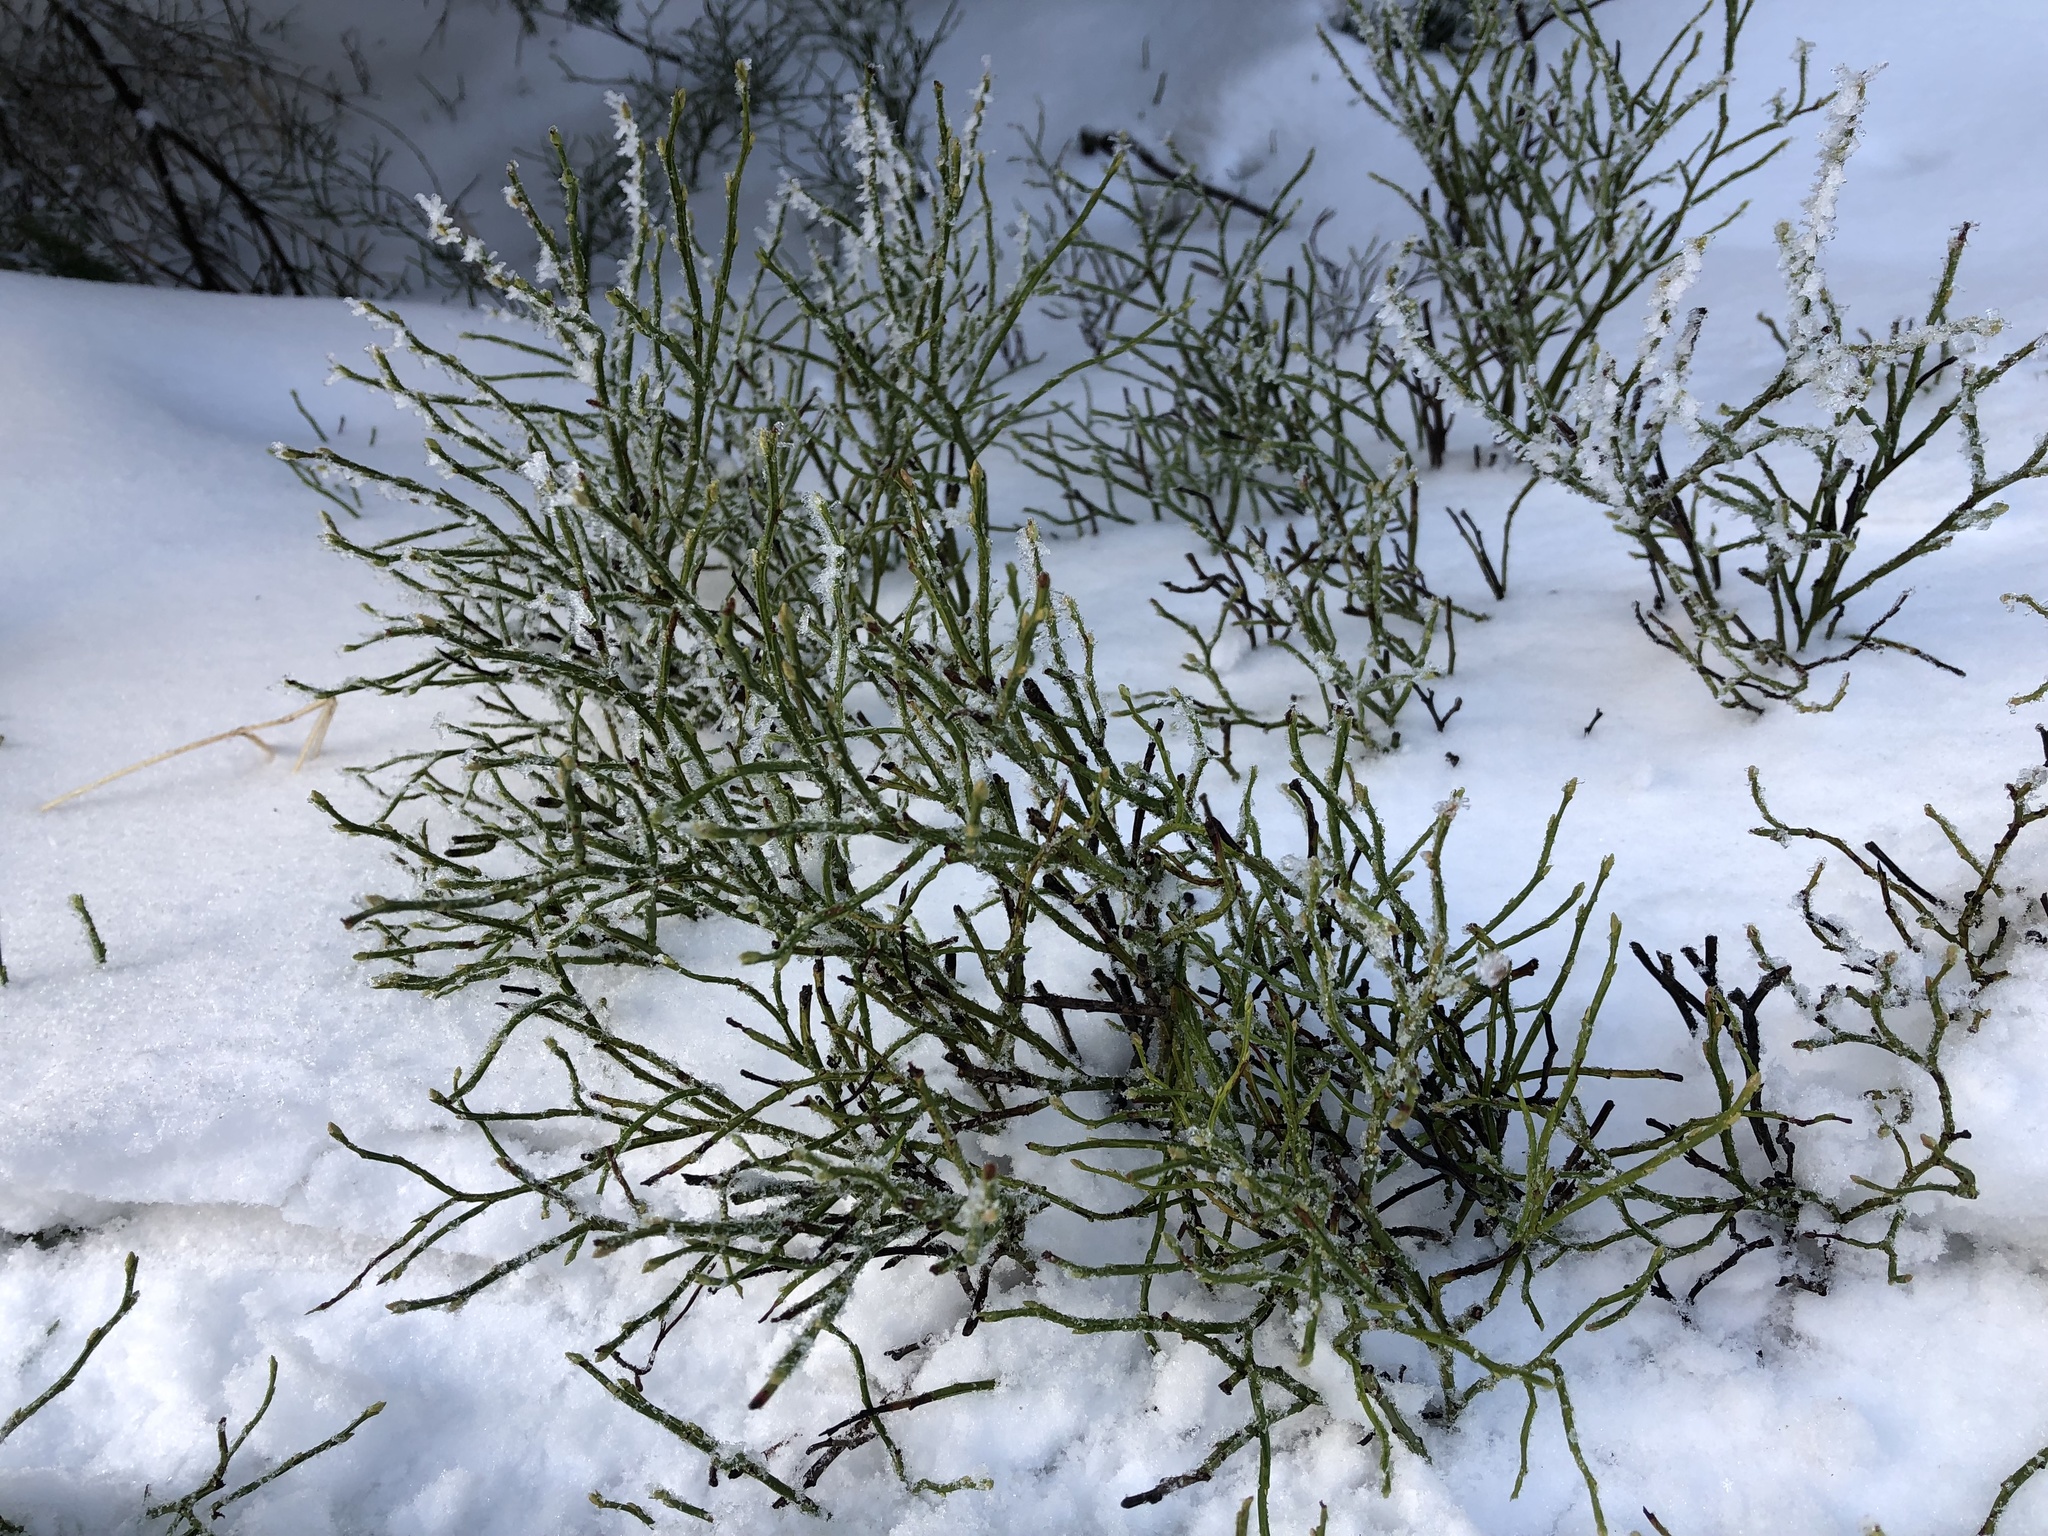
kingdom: Plantae
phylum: Tracheophyta
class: Magnoliopsida
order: Ericales
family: Ericaceae
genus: Vaccinium
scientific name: Vaccinium myrtillus
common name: Bilberry
